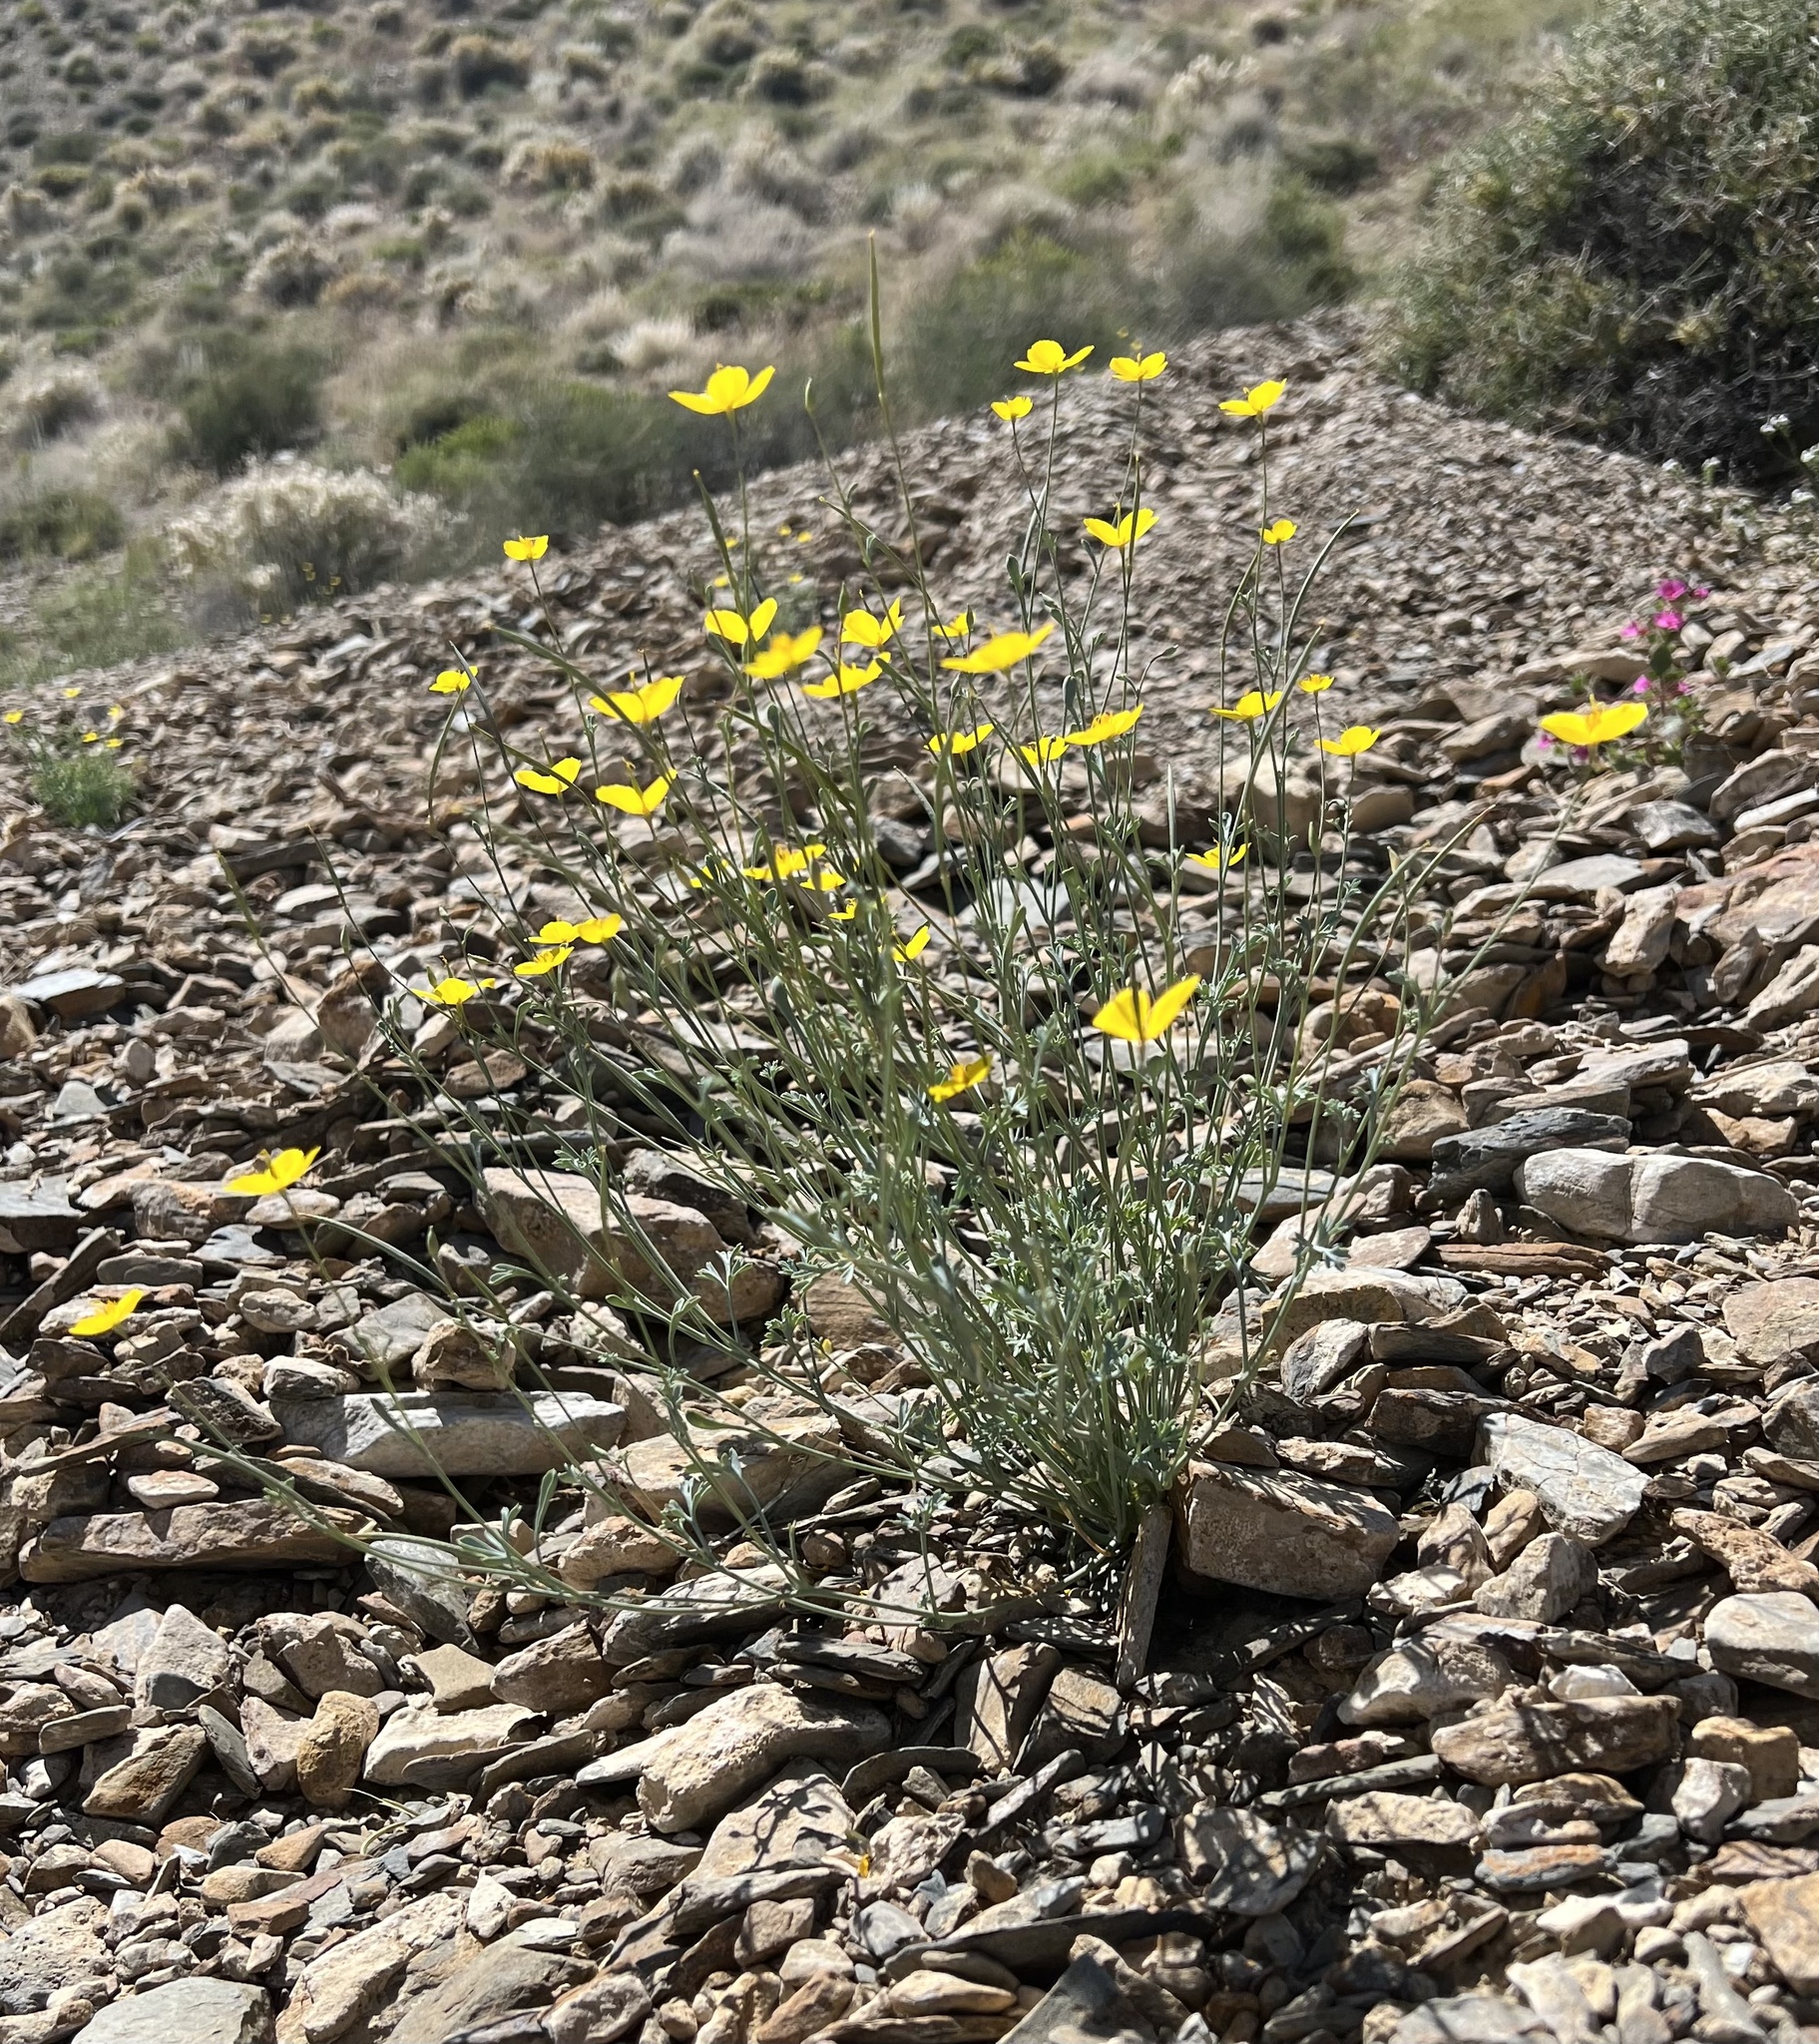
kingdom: Plantae
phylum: Tracheophyta
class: Magnoliopsida
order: Ranunculales
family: Papaveraceae
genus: Eschscholzia
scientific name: Eschscholzia minutiflora
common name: Small-flower california-poppy
